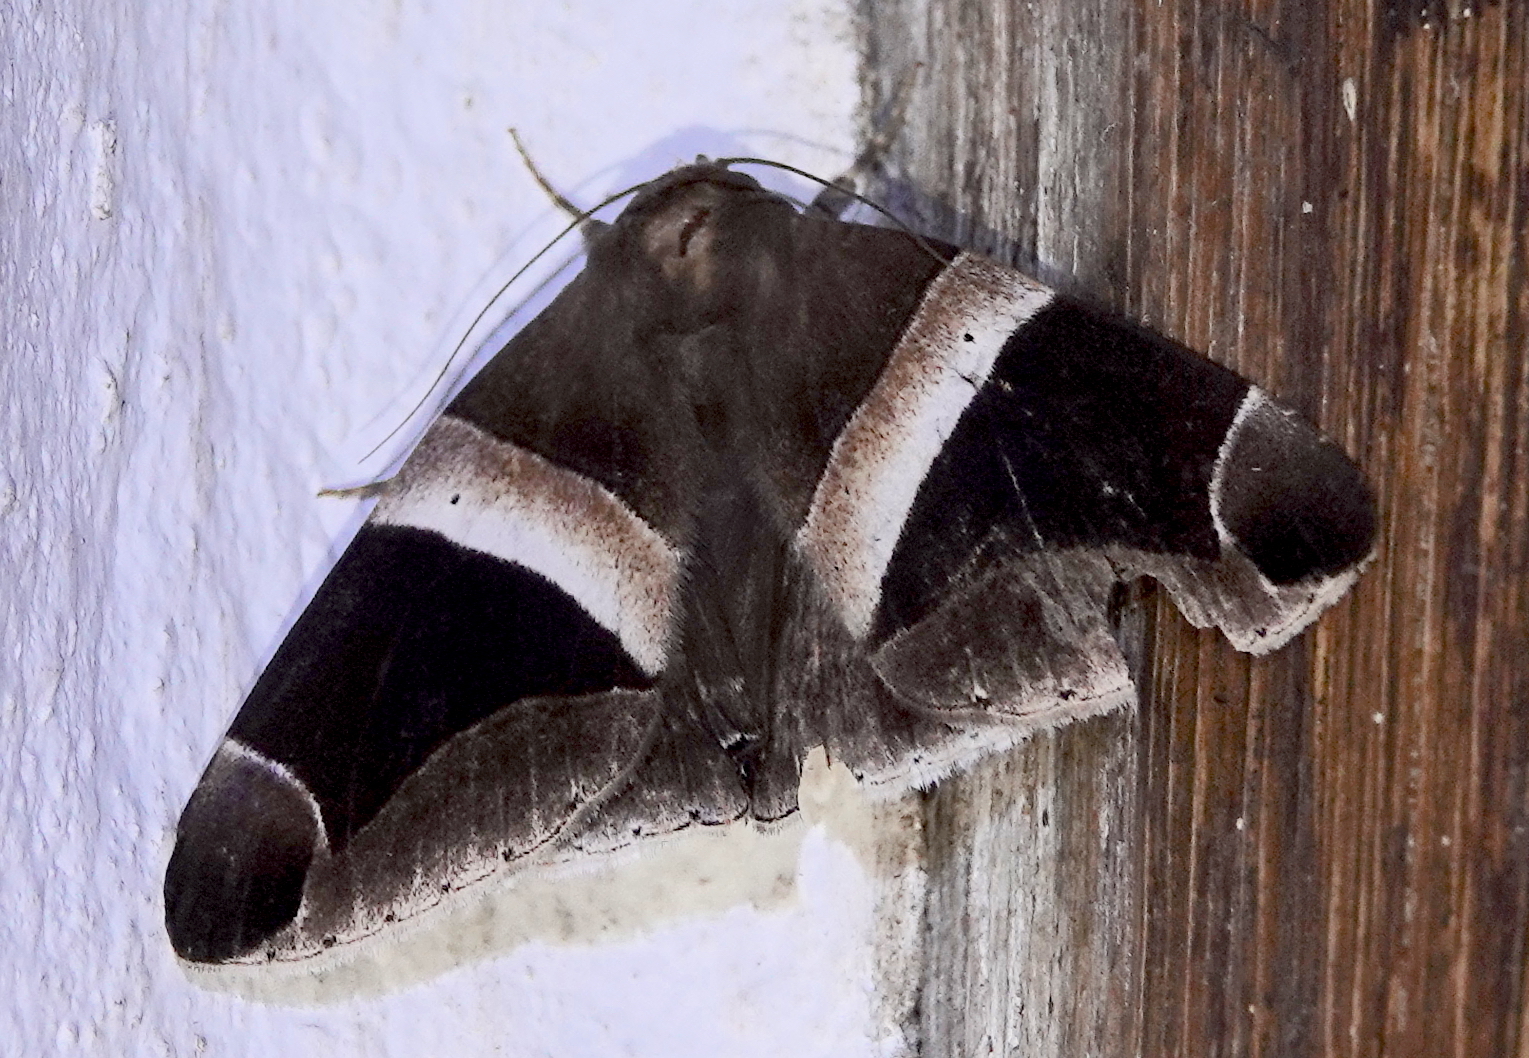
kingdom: Animalia
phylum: Arthropoda
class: Insecta
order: Lepidoptera
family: Erebidae
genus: Parallelia
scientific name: Parallelia expediens
